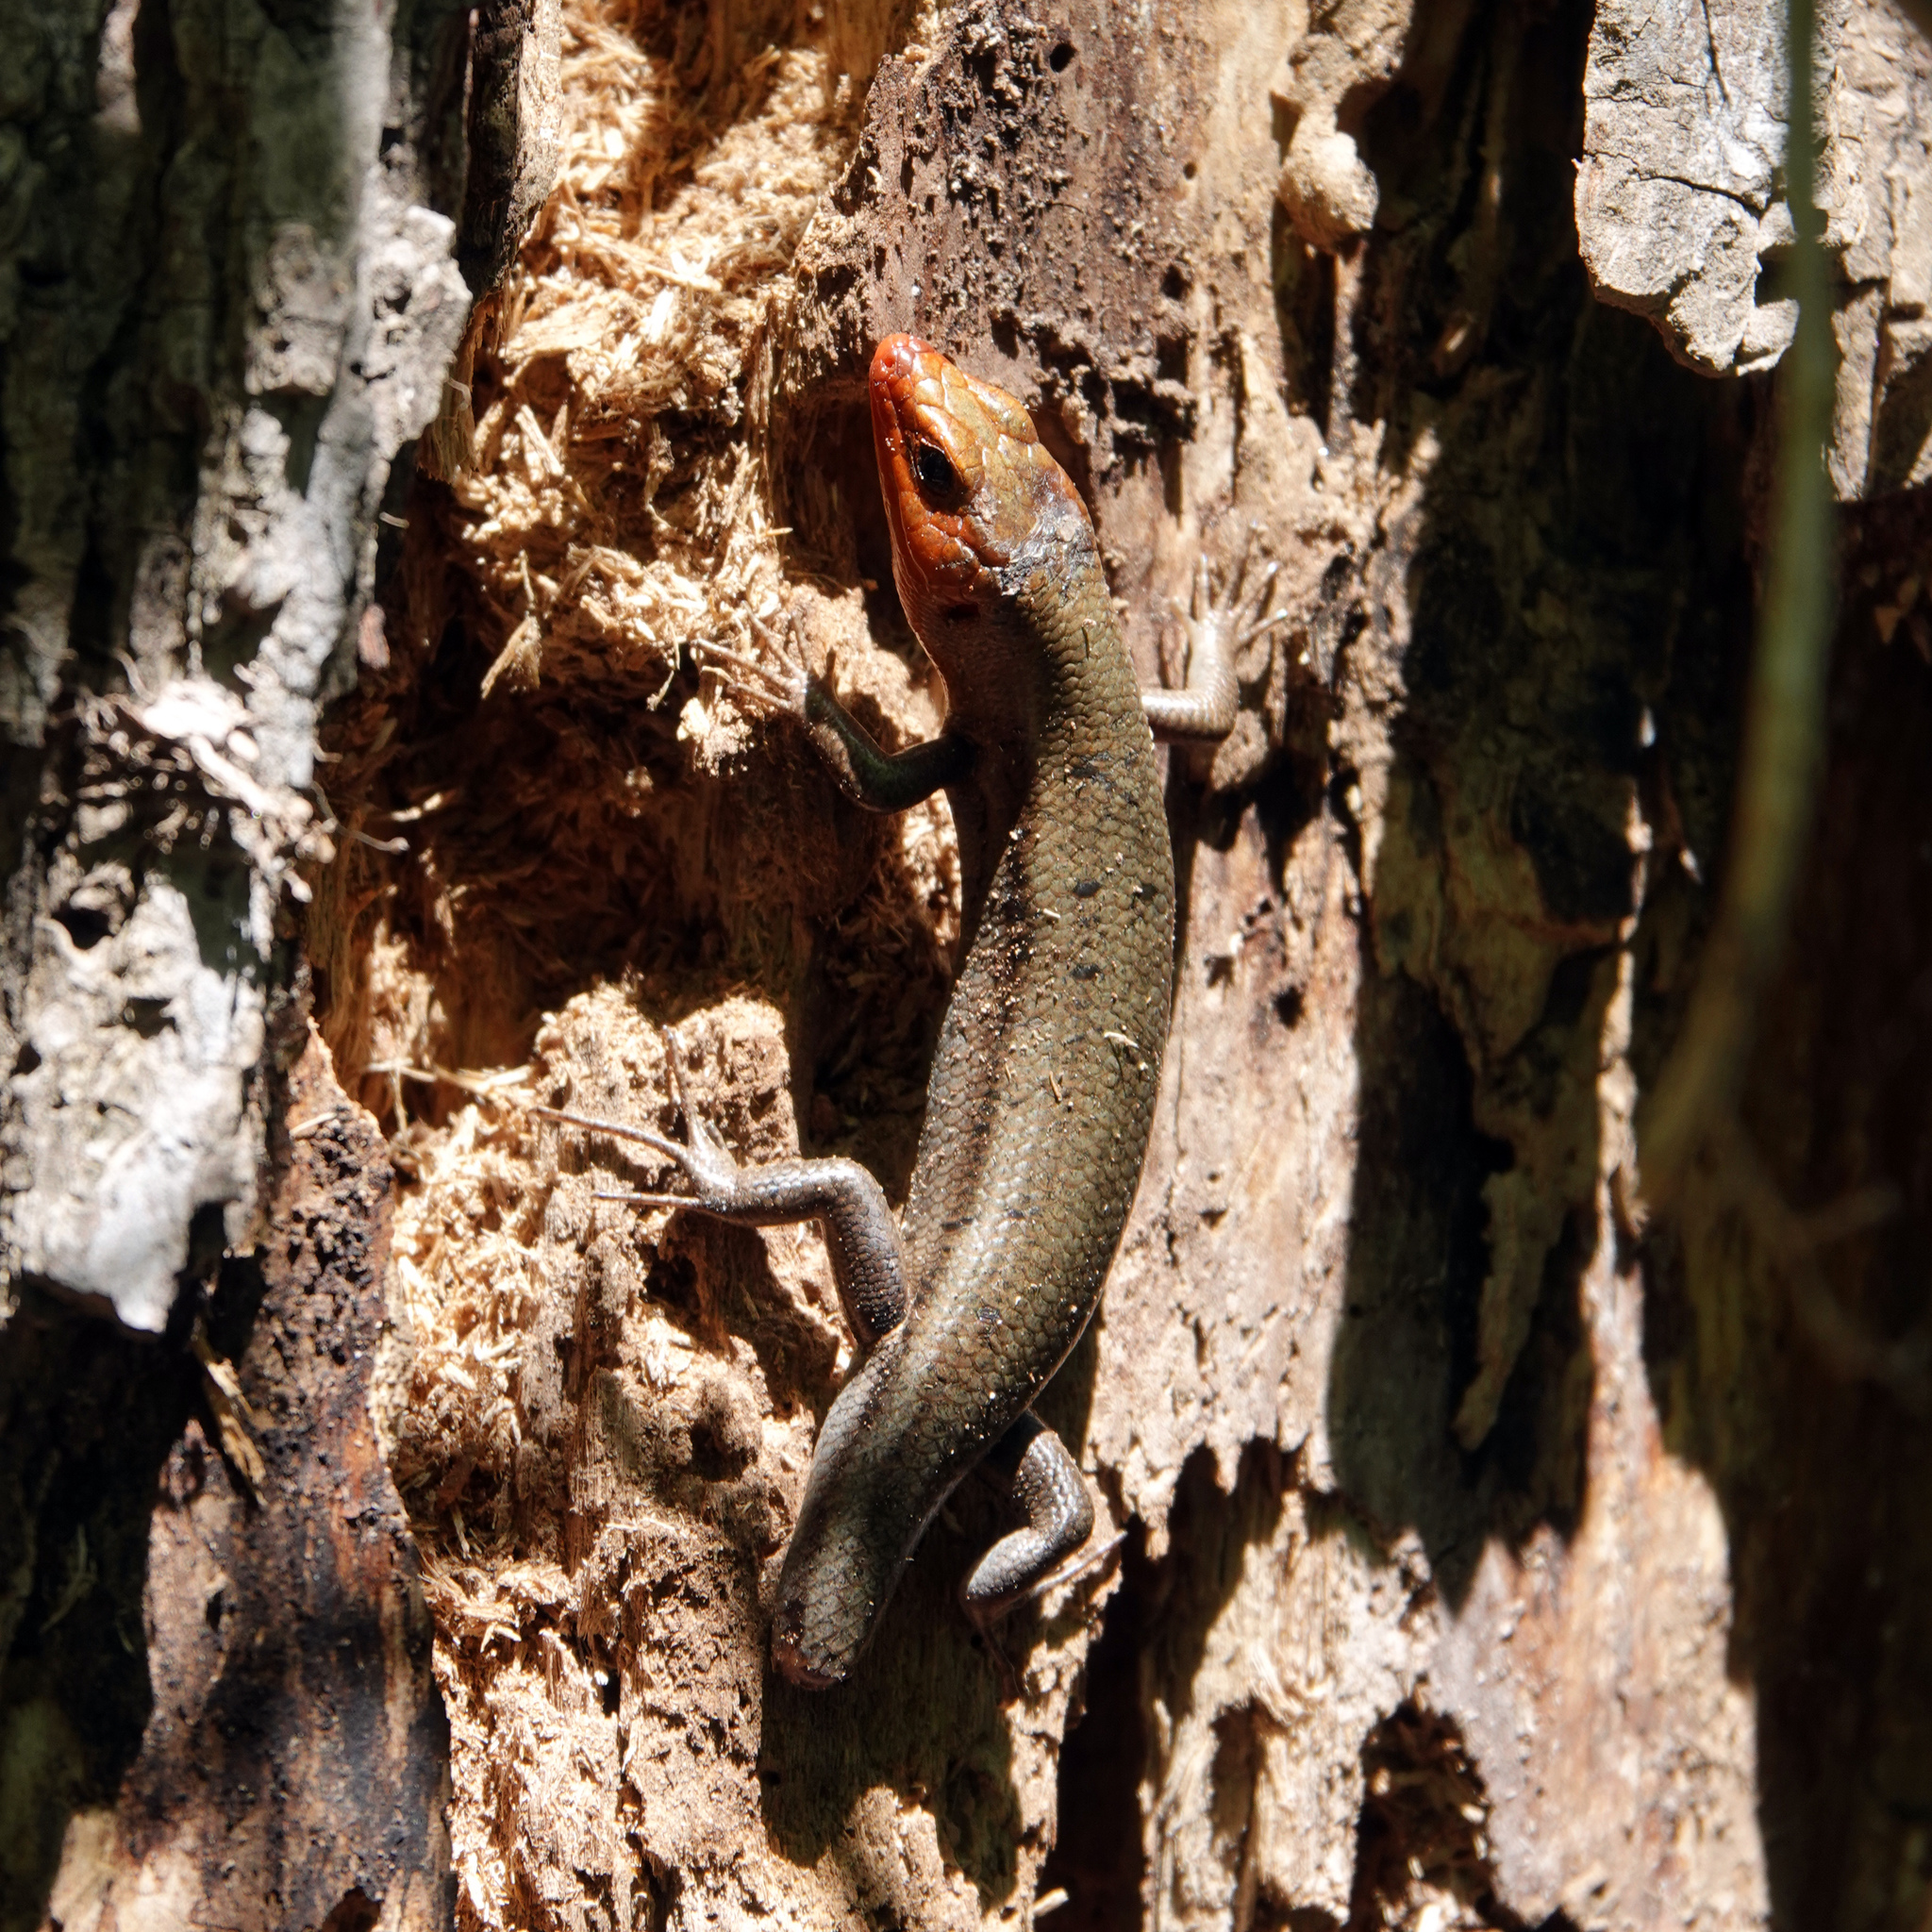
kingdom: Animalia
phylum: Chordata
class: Squamata
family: Scincidae
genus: Plestiodon
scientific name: Plestiodon fasciatus
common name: Five-lined skink
